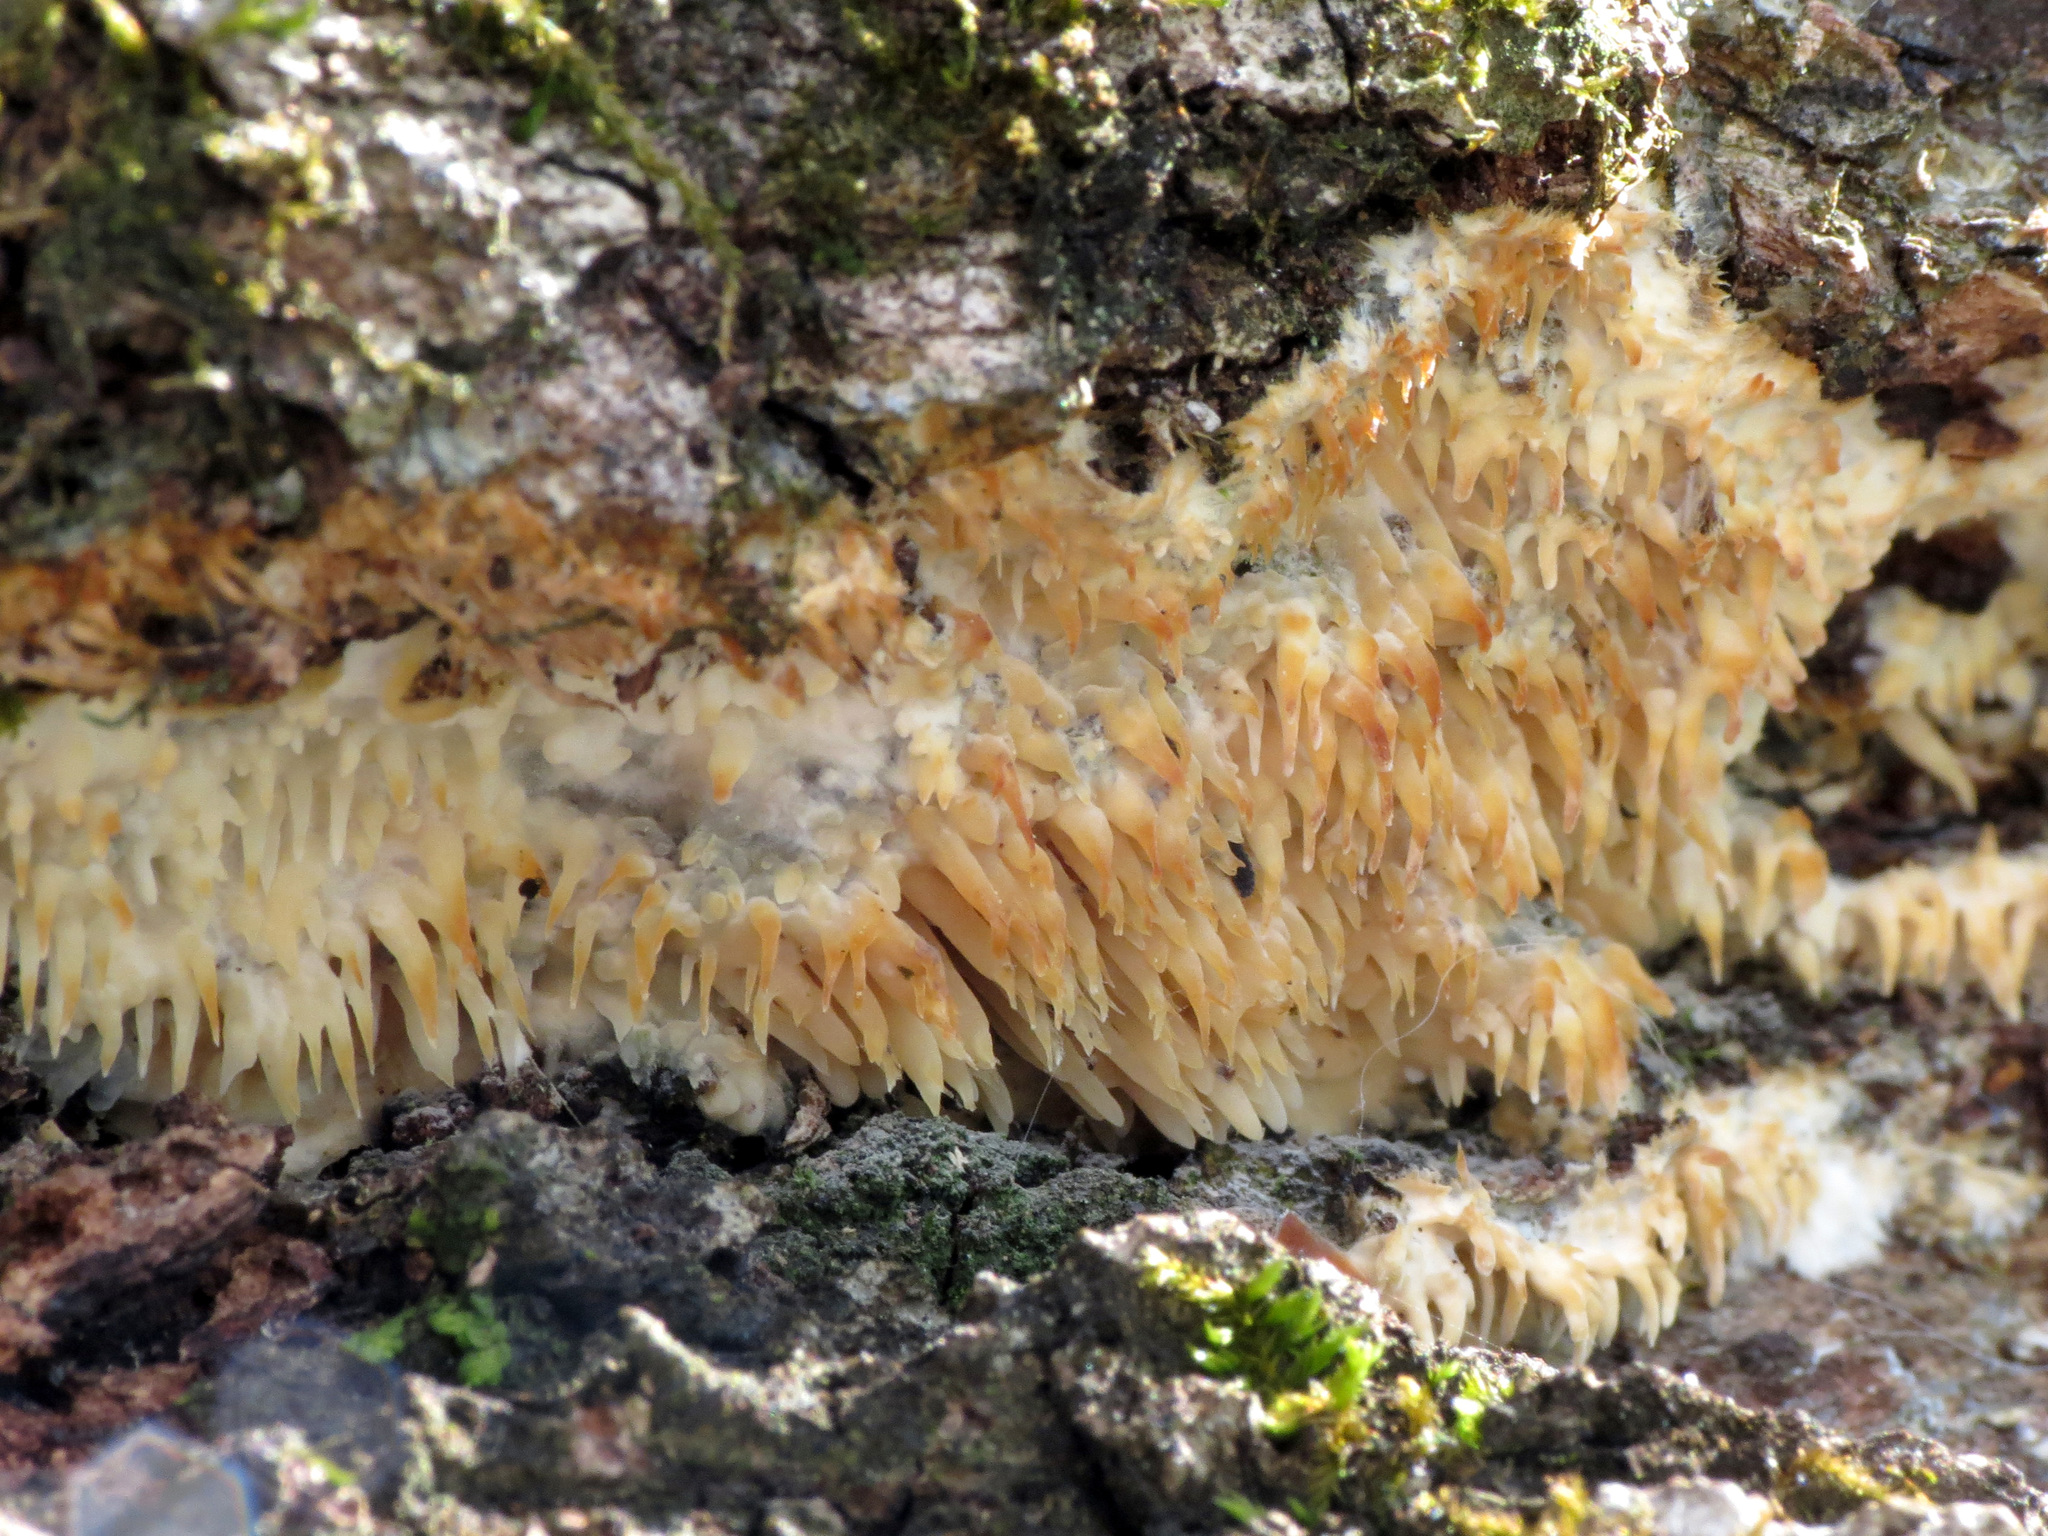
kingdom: Fungi
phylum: Basidiomycota
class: Agaricomycetes
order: Agaricales
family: Radulomycetaceae
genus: Radulomyces
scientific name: Radulomyces copelandii
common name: Asian beauty
